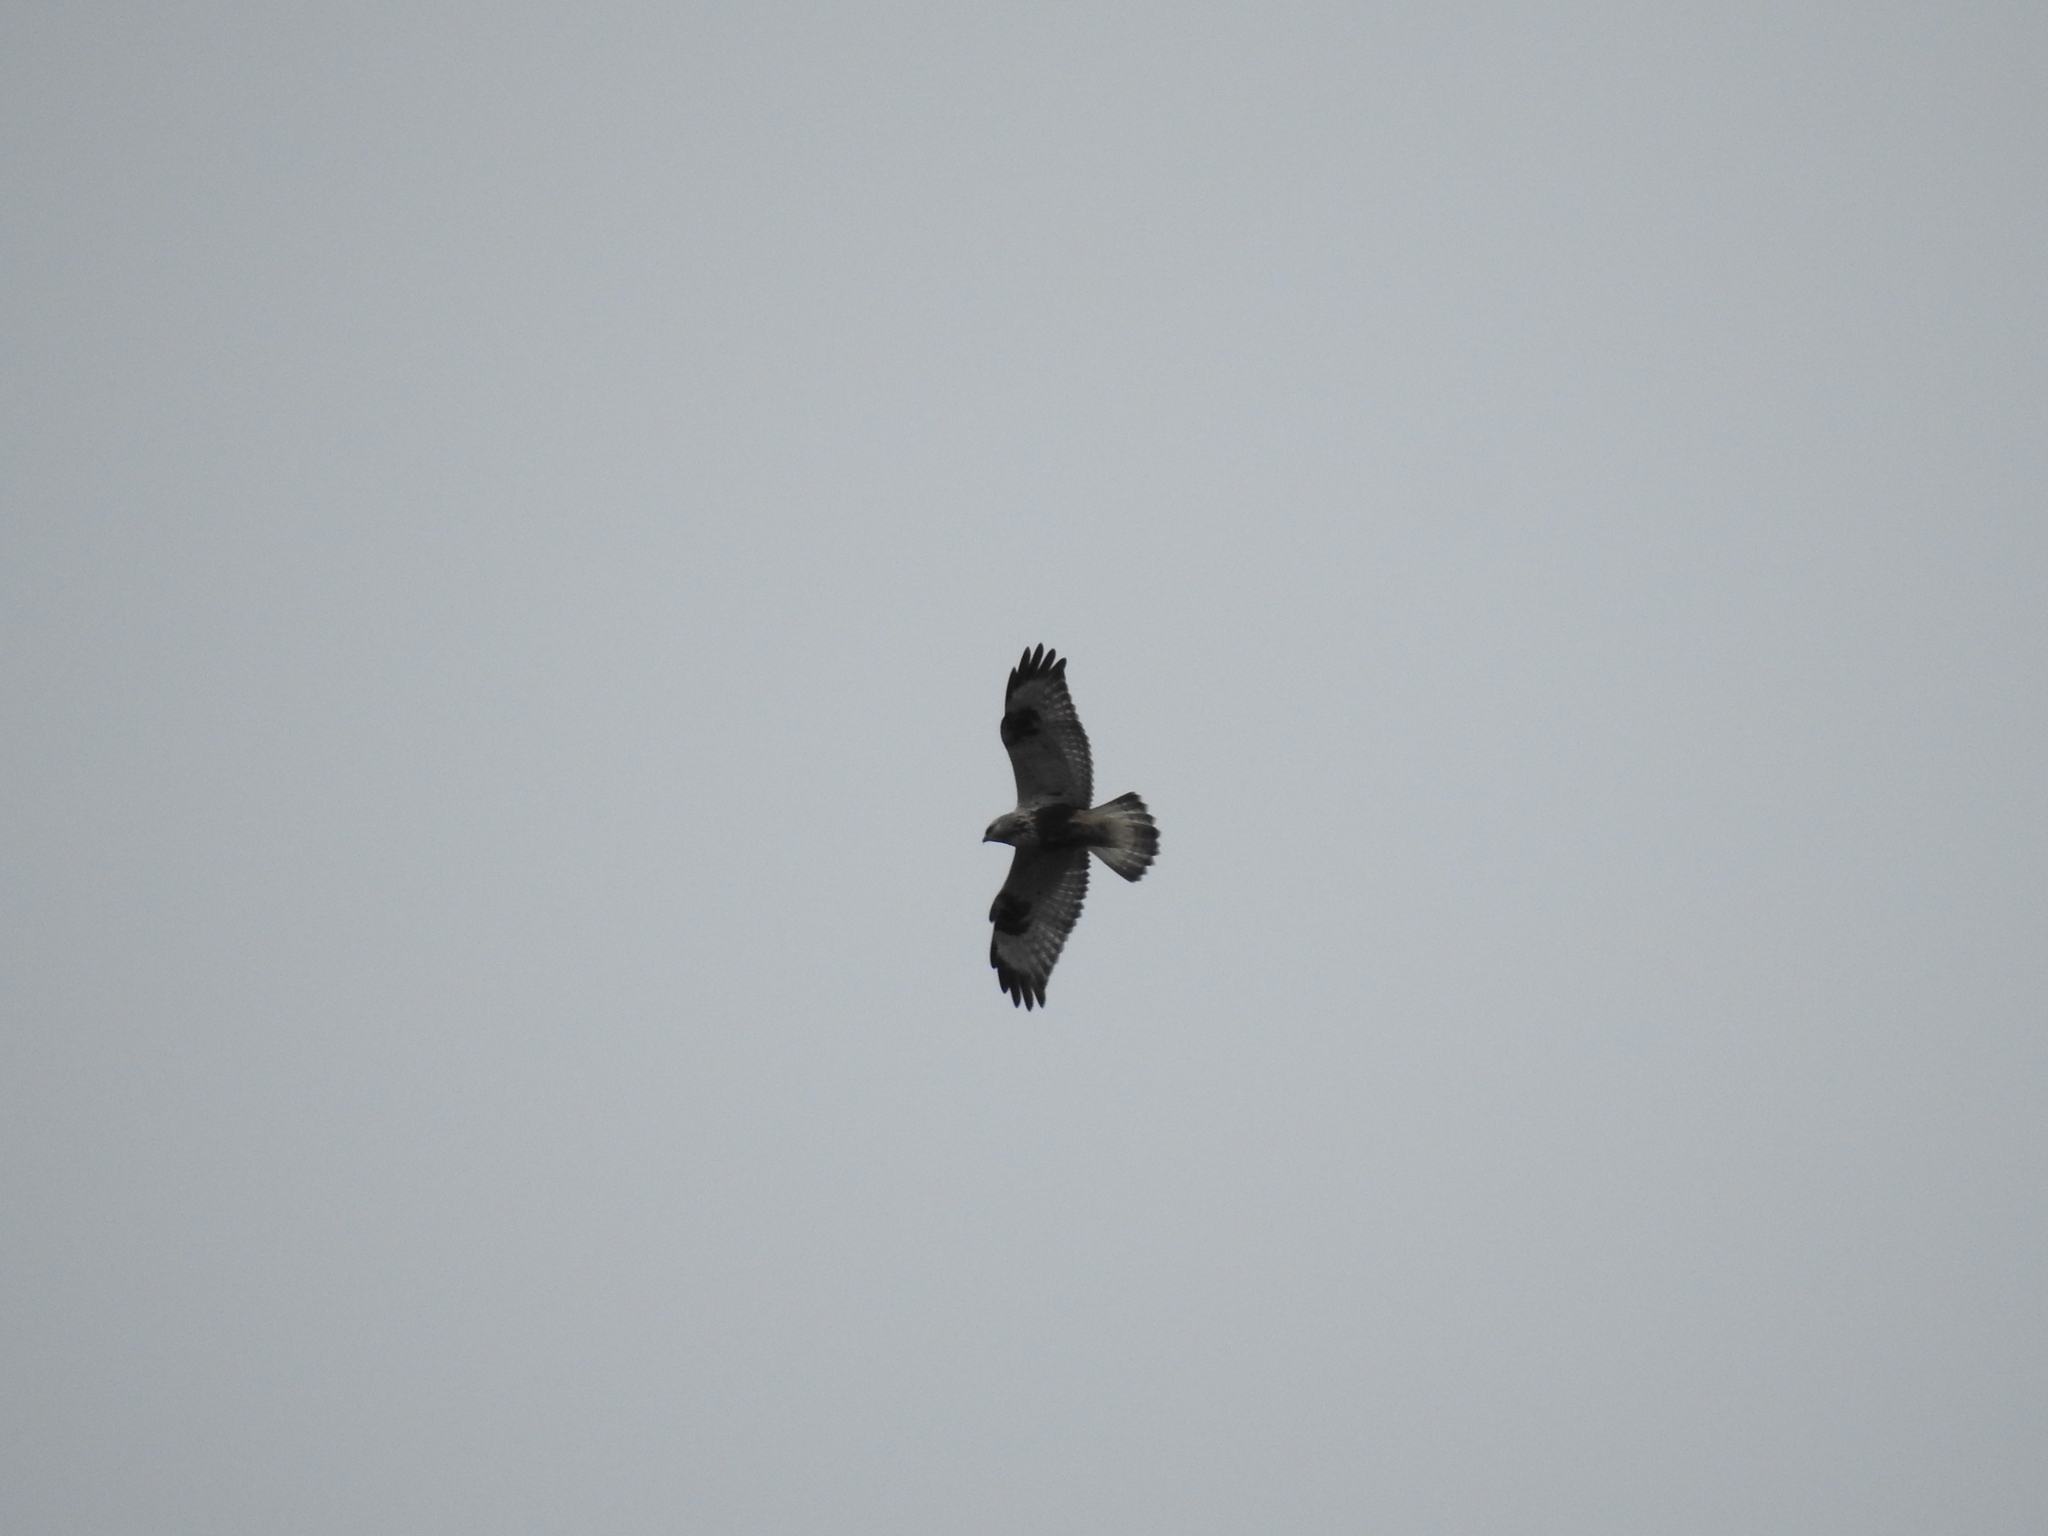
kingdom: Animalia
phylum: Chordata
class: Aves
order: Accipitriformes
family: Accipitridae
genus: Buteo
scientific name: Buteo lagopus
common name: Rough-legged buzzard
